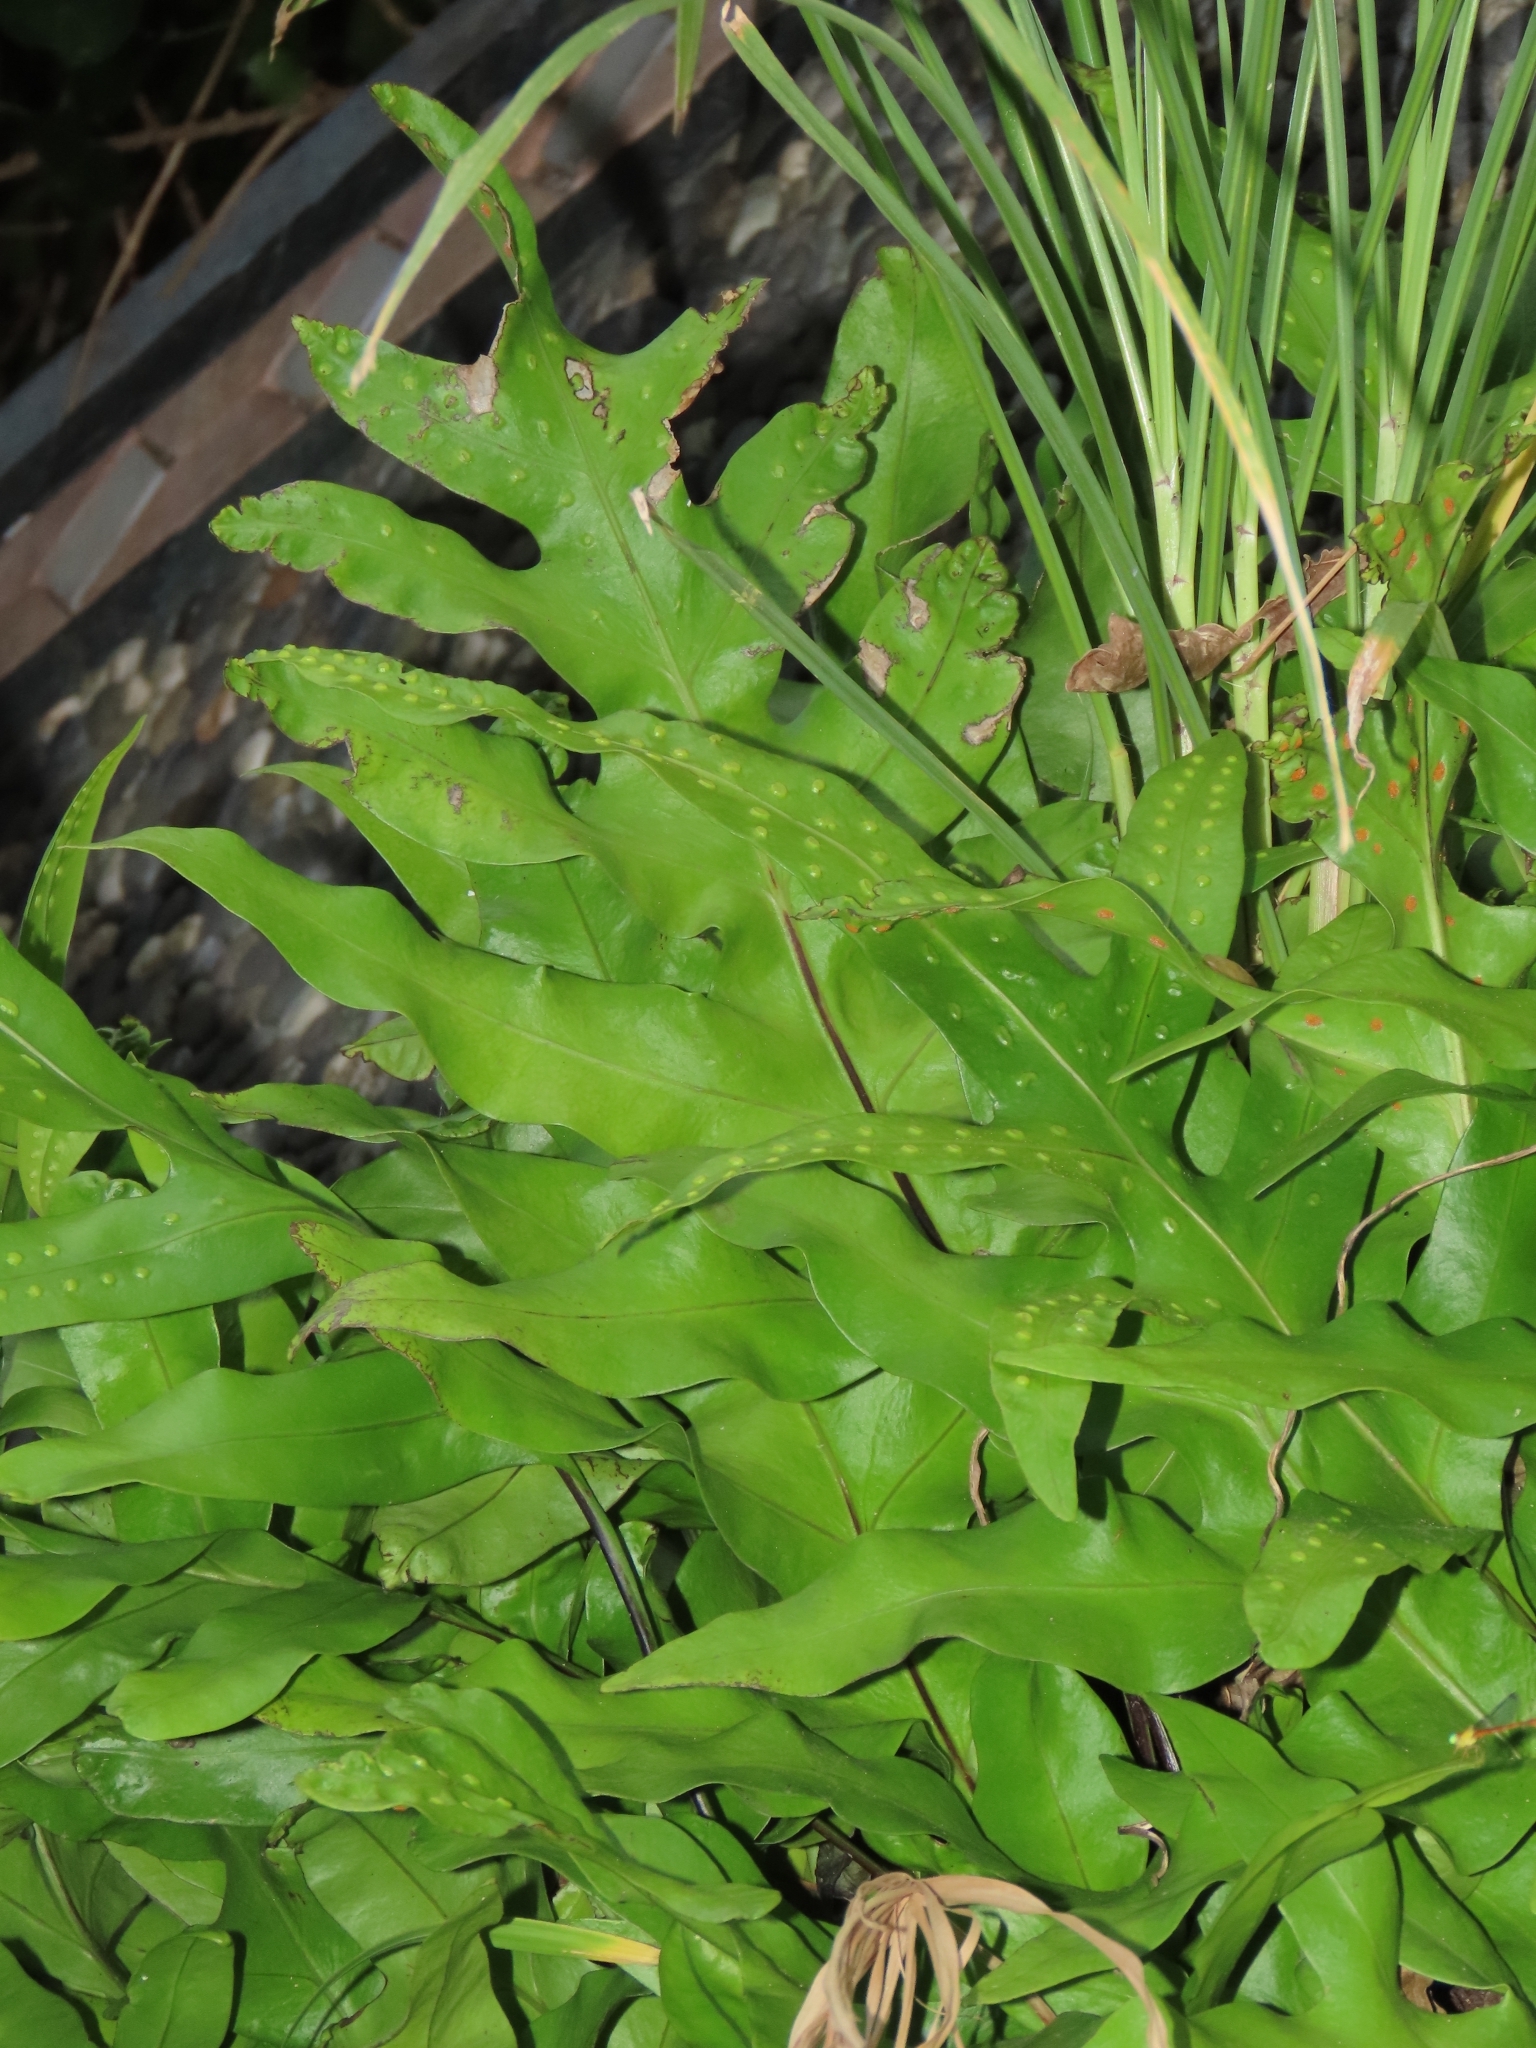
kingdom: Plantae
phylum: Tracheophyta
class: Polypodiopsida
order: Polypodiales
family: Polypodiaceae
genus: Microsorum
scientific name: Microsorum scolopendria
